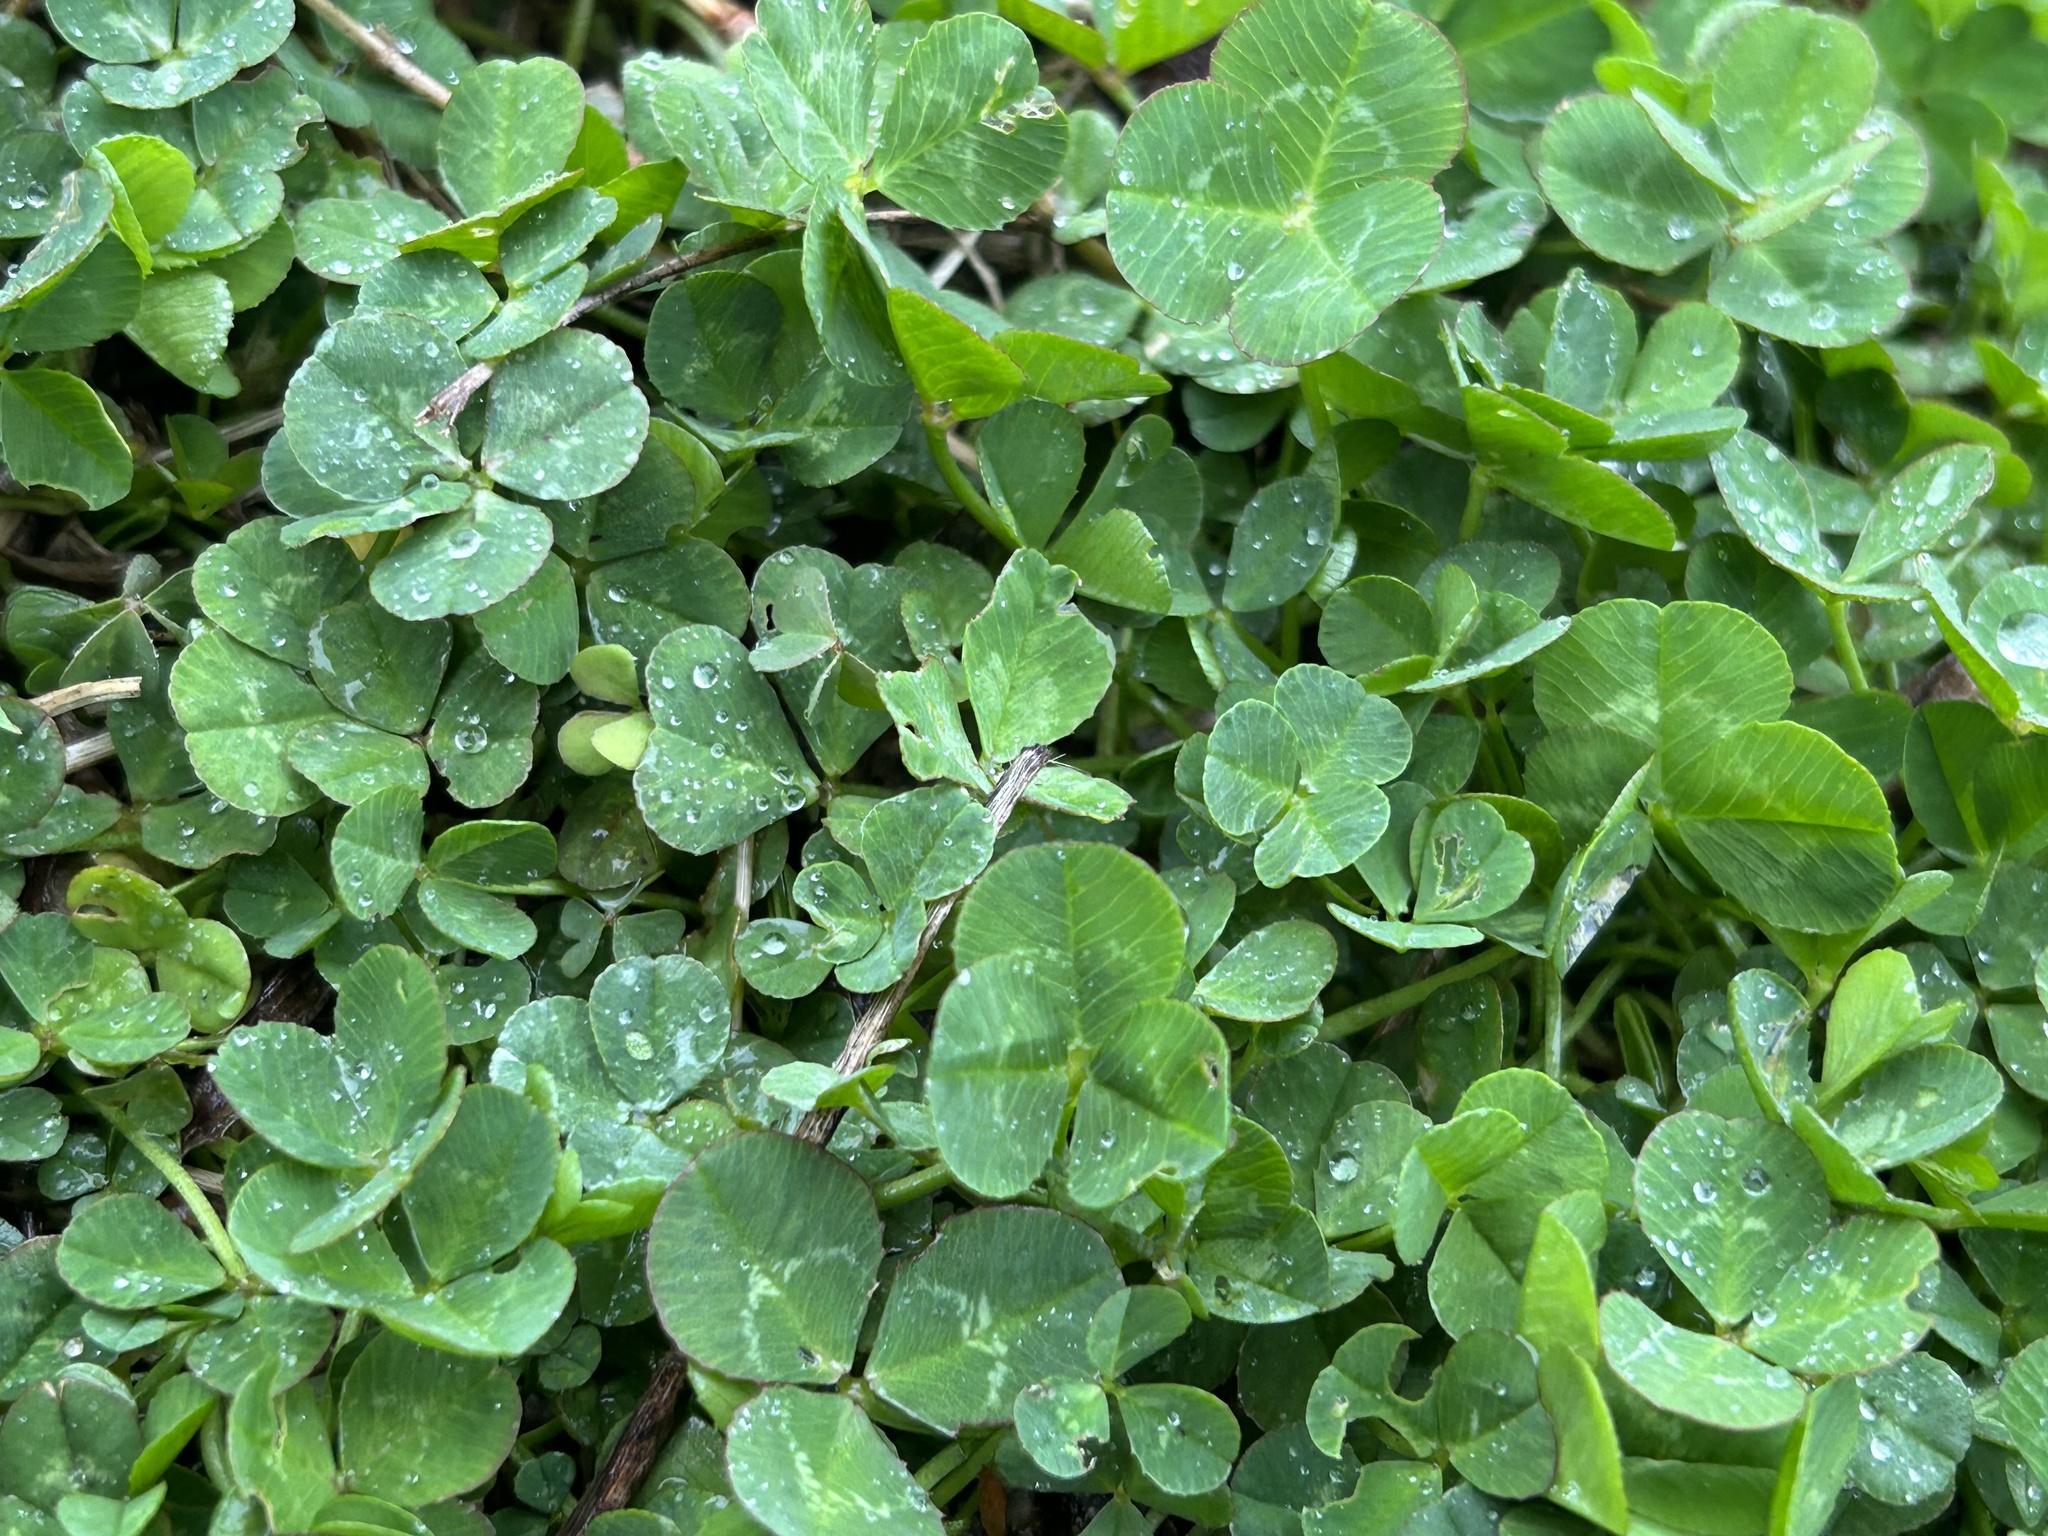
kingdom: Plantae
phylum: Tracheophyta
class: Magnoliopsida
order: Fabales
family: Fabaceae
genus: Trifolium
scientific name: Trifolium repens
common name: White clover
